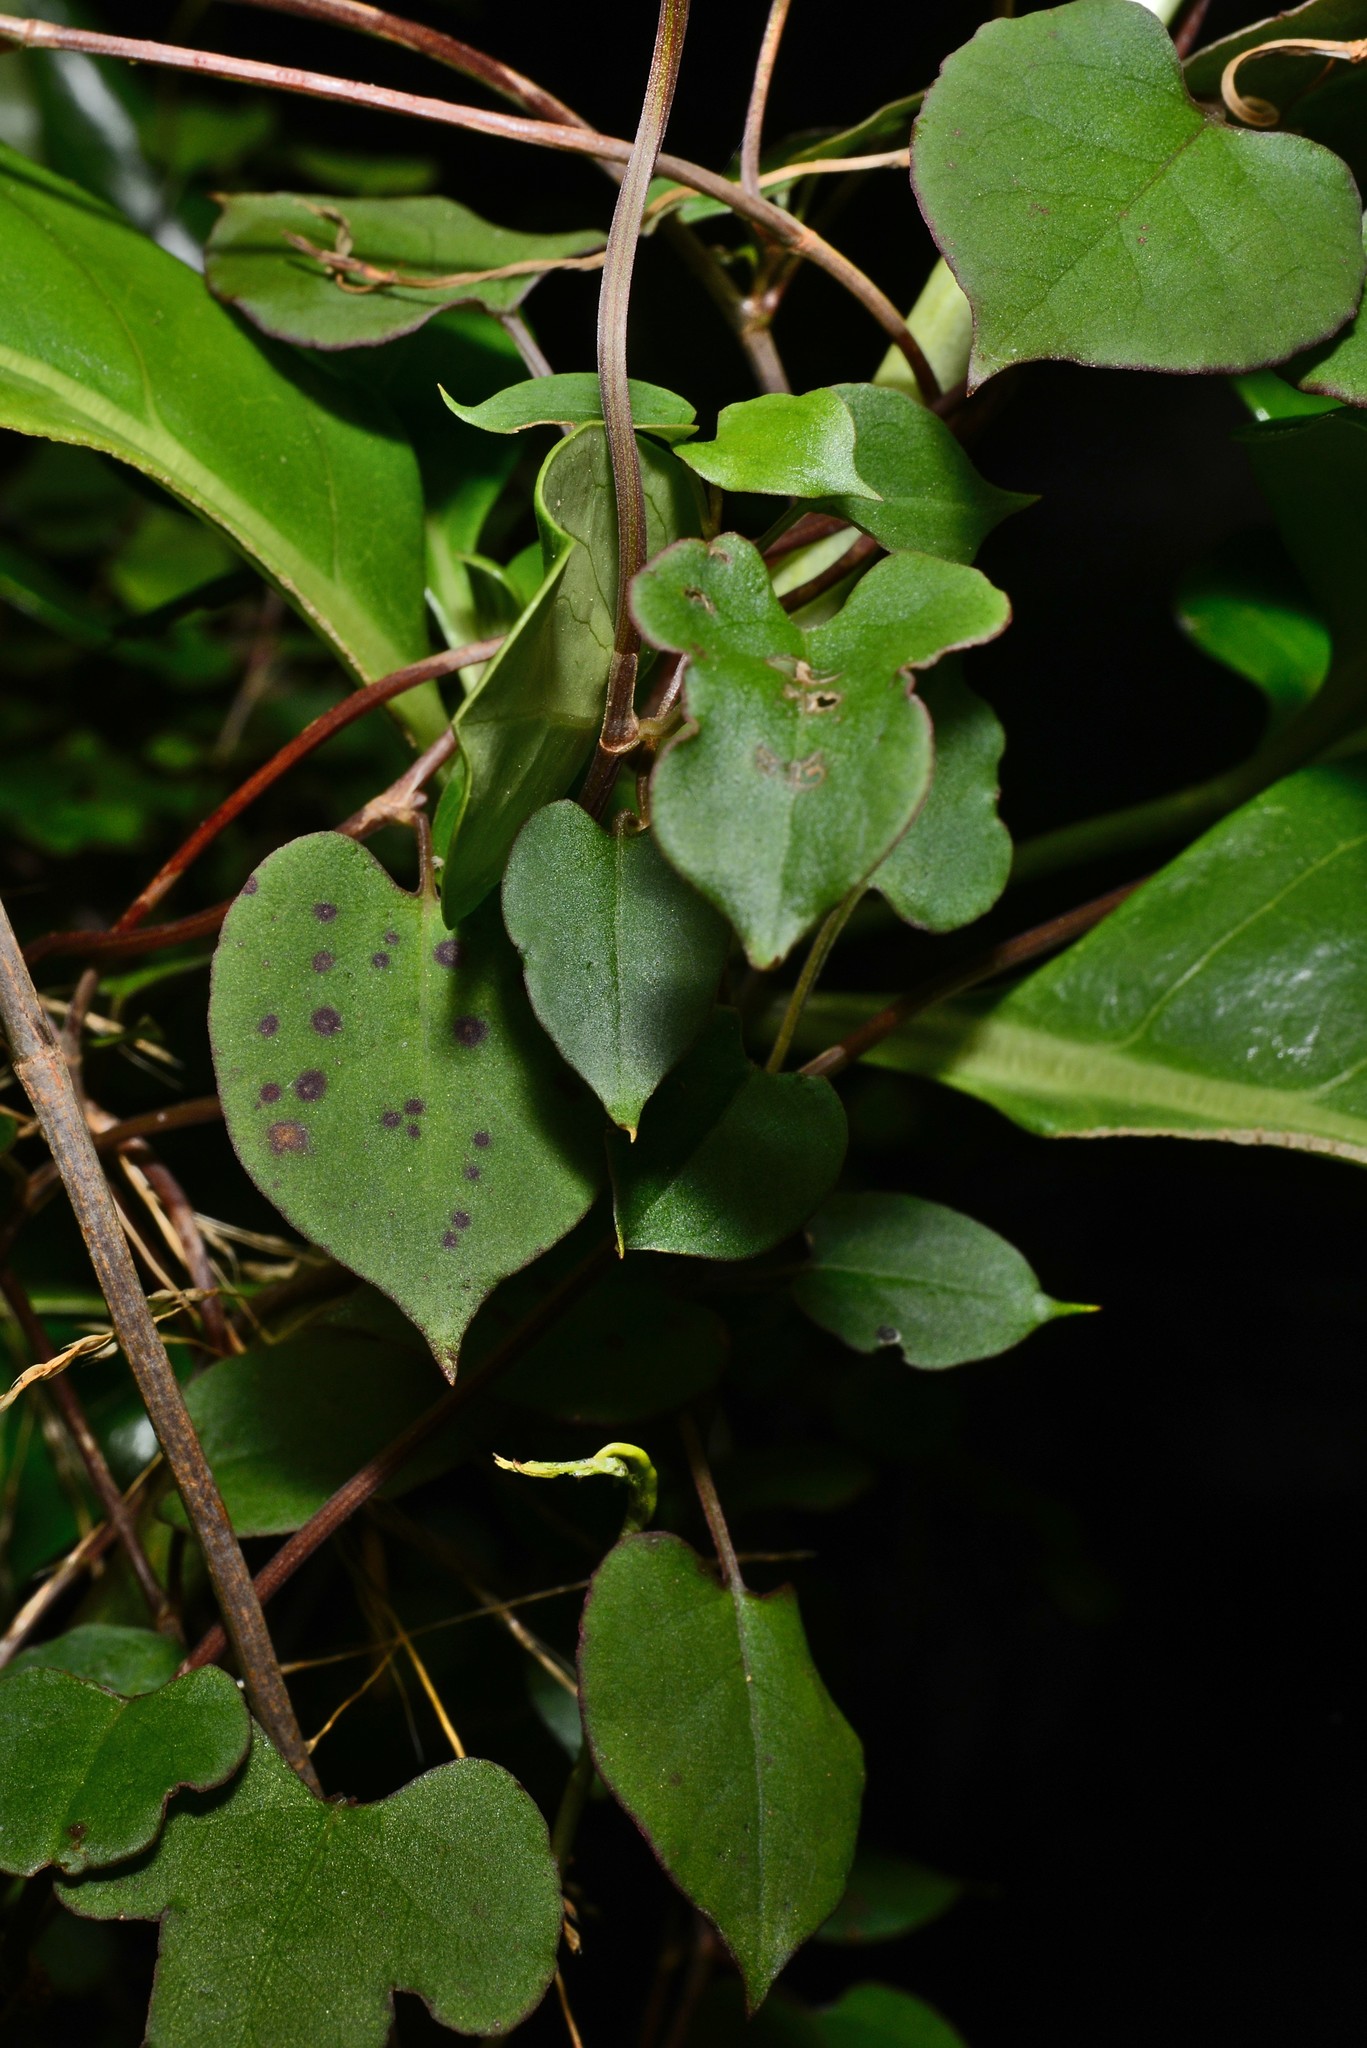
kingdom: Plantae
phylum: Tracheophyta
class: Magnoliopsida
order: Caryophyllales
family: Polygonaceae
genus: Muehlenbeckia
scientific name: Muehlenbeckia australis
